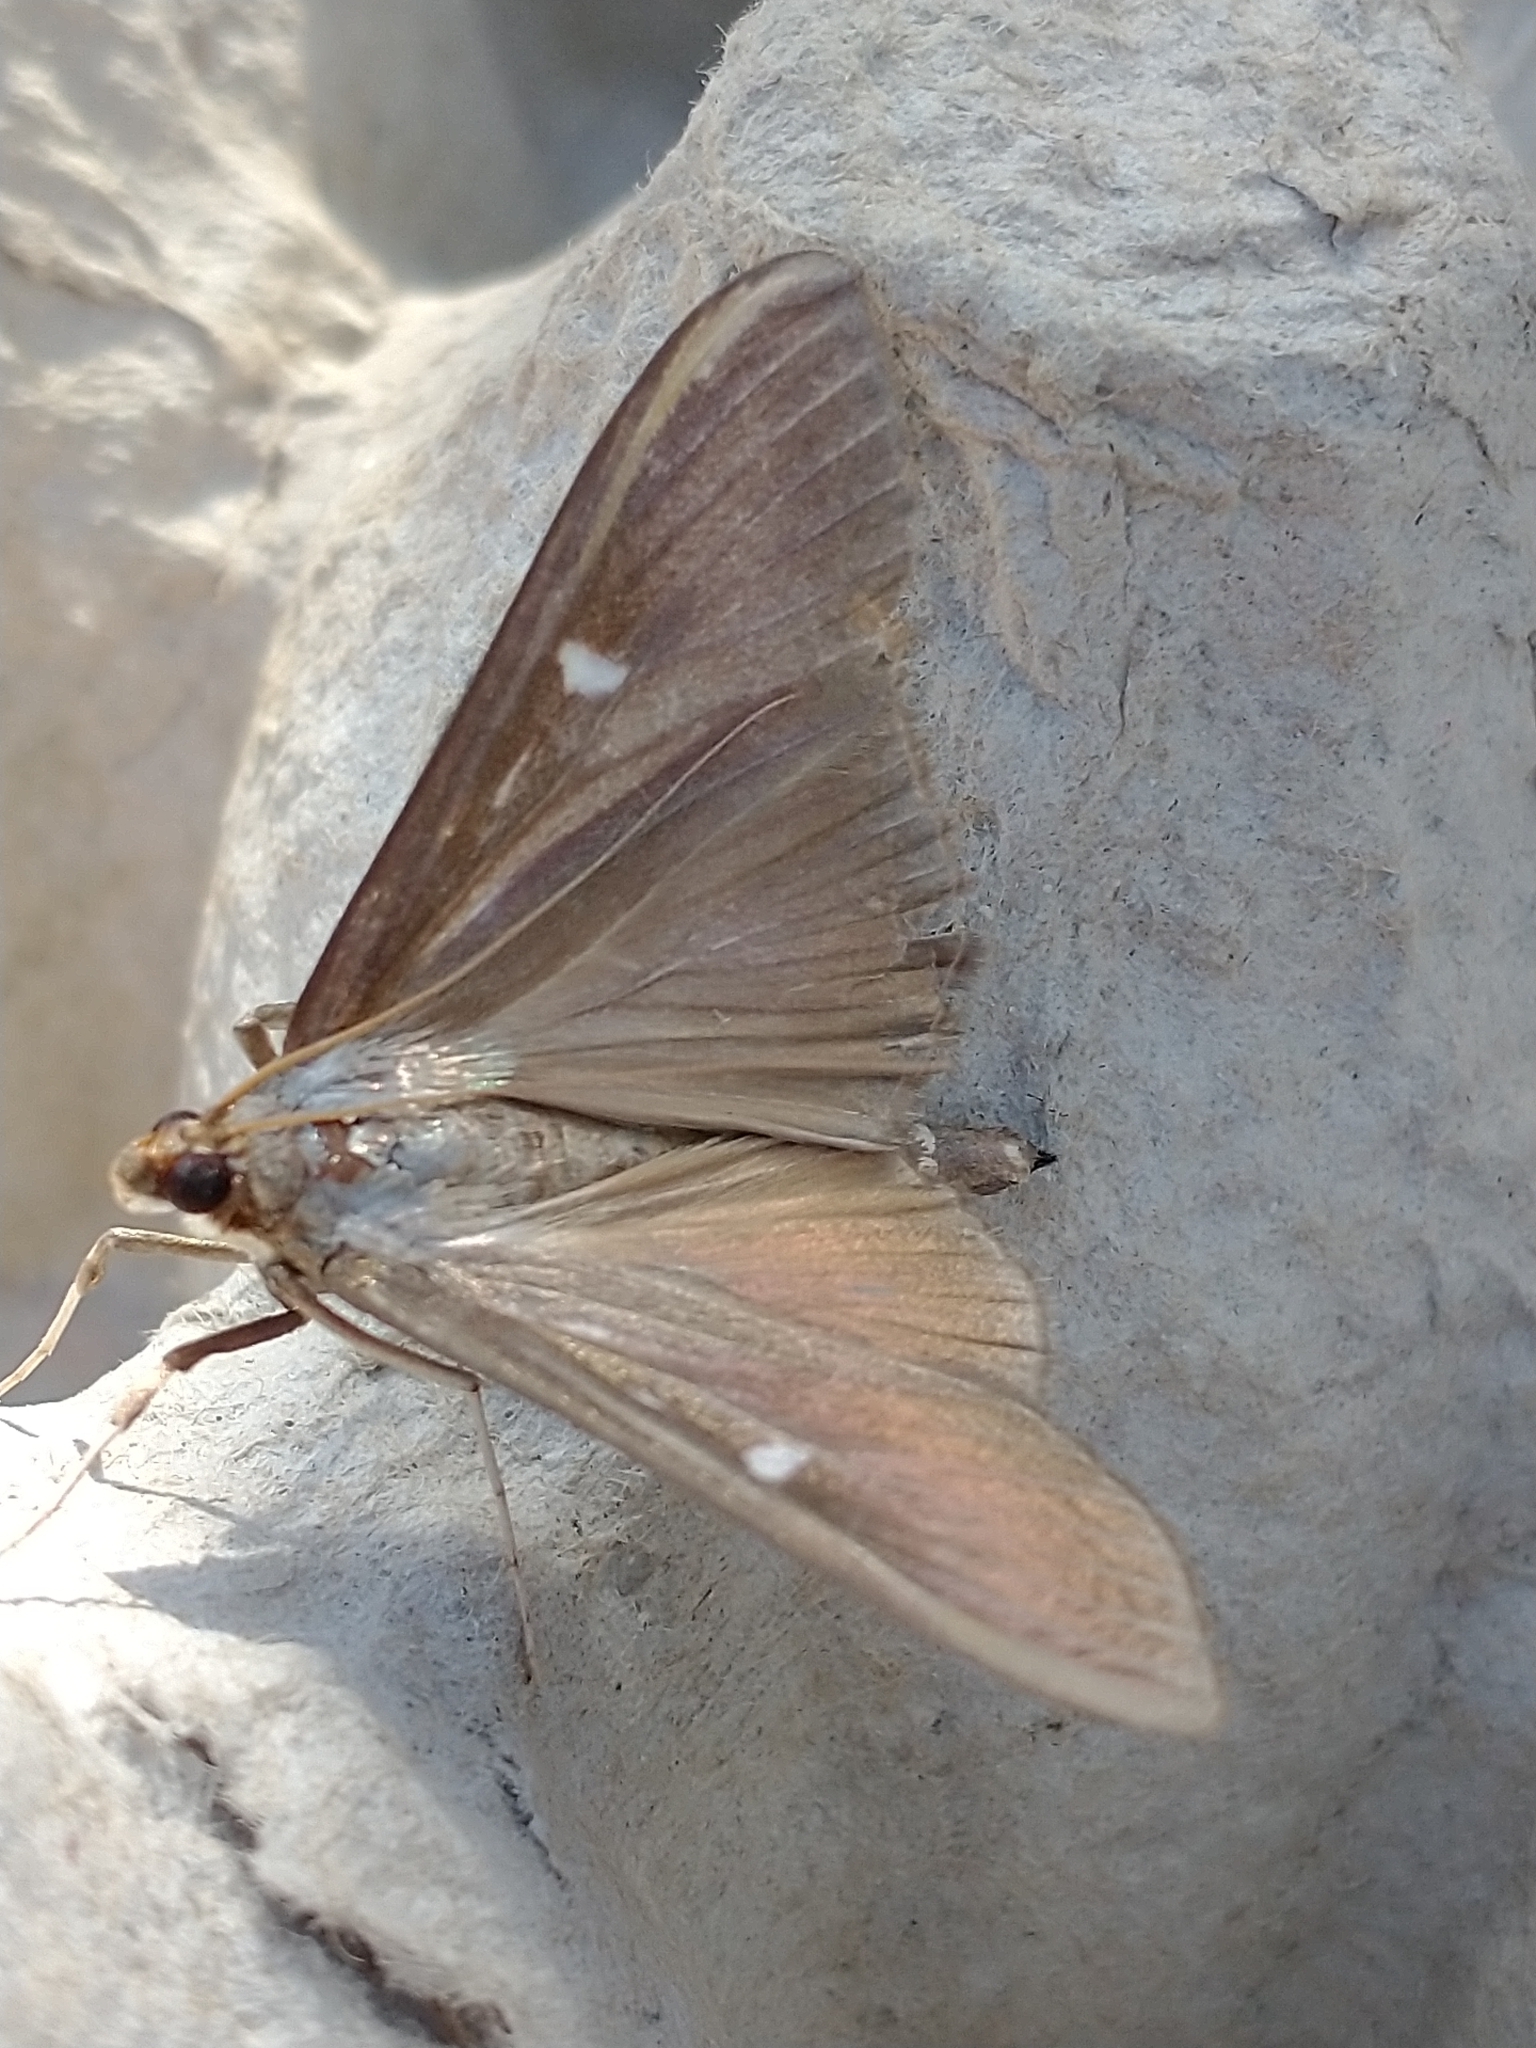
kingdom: Animalia
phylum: Arthropoda
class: Insecta
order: Lepidoptera
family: Crambidae
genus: Cydalima
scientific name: Cydalima perspectalis
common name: Box tree moth
